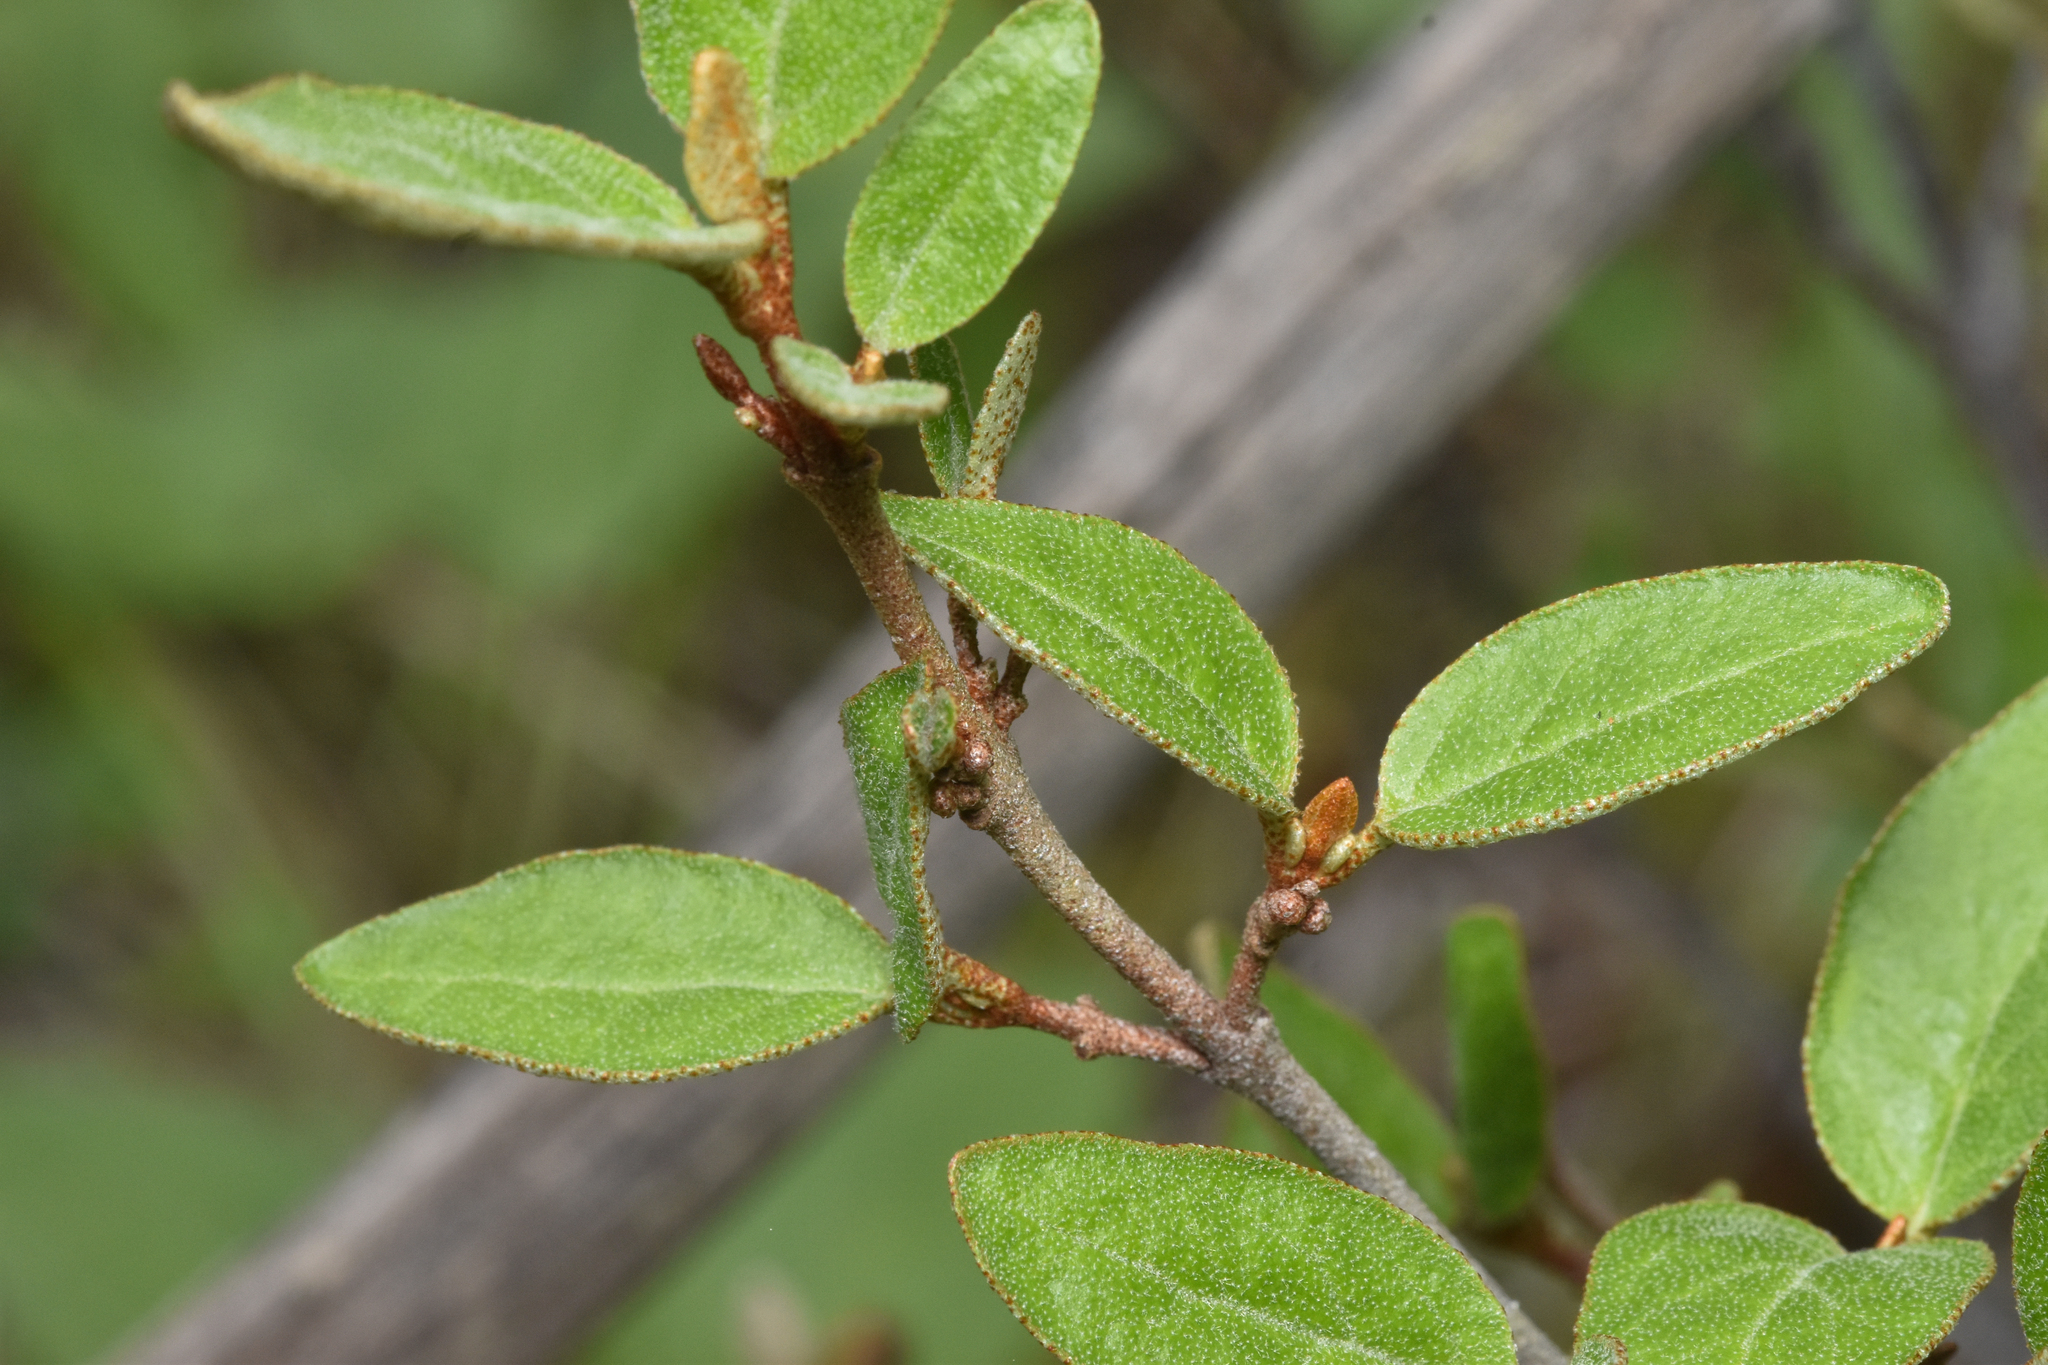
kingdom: Plantae
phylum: Tracheophyta
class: Magnoliopsida
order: Rosales
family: Elaeagnaceae
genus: Shepherdia
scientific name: Shepherdia canadensis
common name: Soapberry
